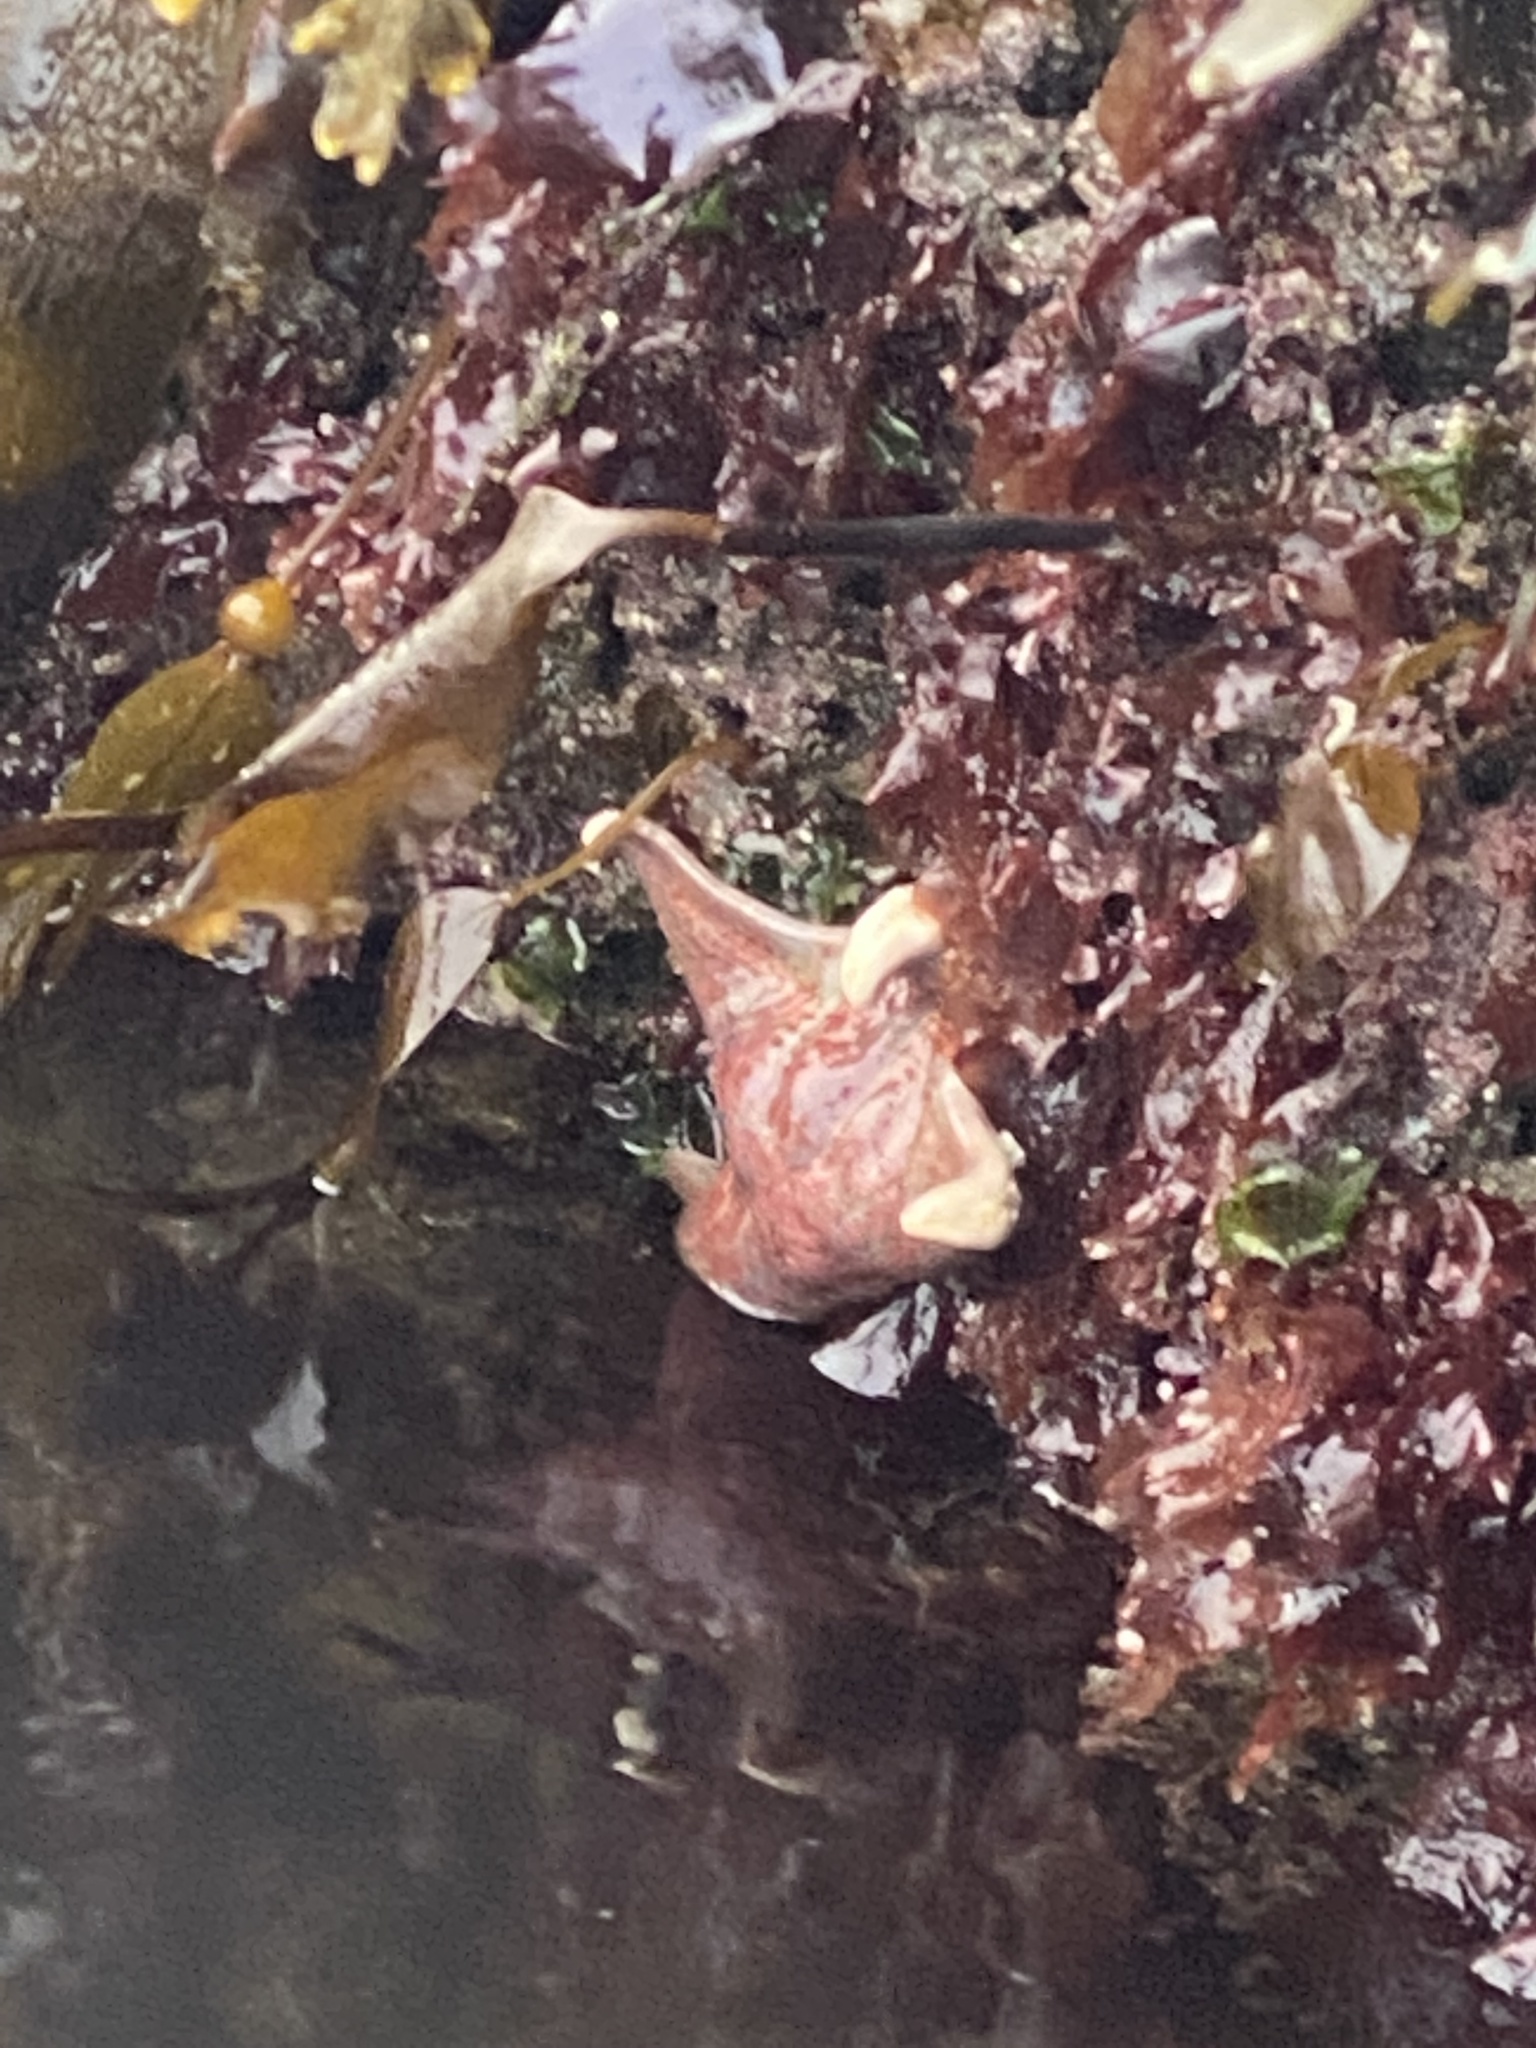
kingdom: Animalia
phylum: Echinodermata
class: Asteroidea
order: Valvatida
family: Asteropseidae
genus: Dermasterias
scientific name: Dermasterias imbricata
